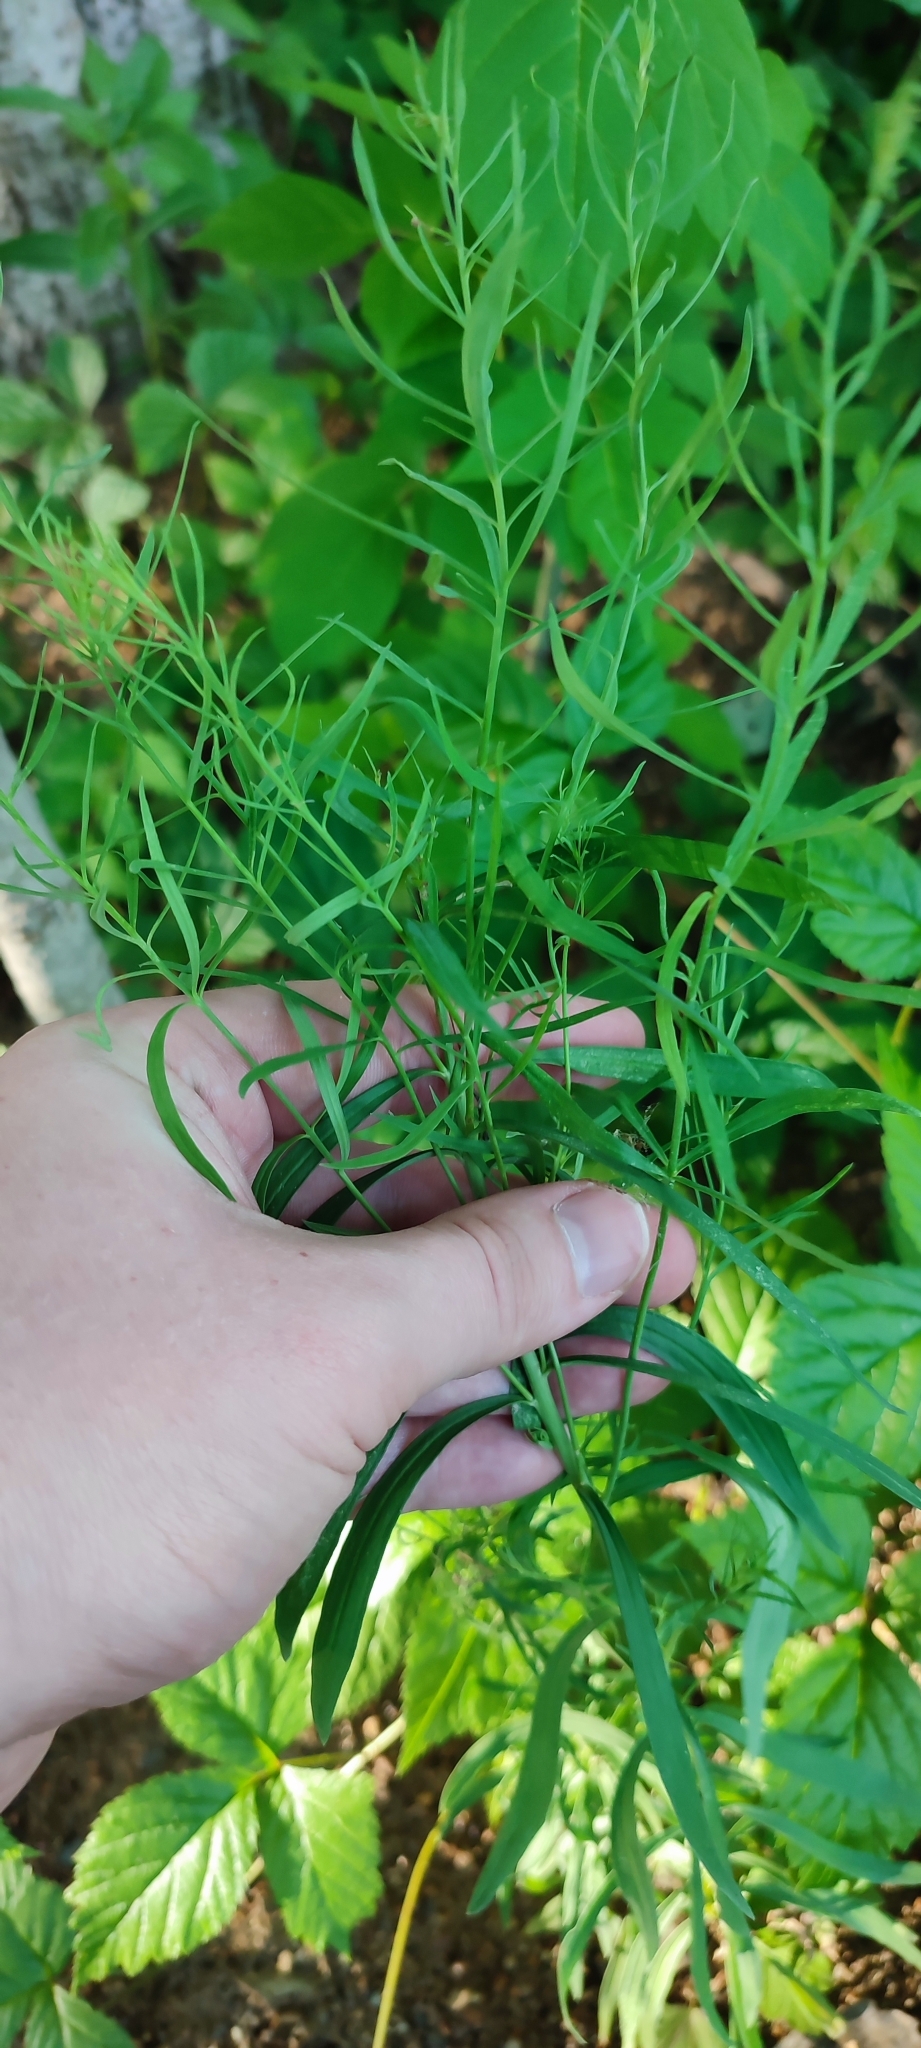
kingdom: Plantae
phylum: Tracheophyta
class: Magnoliopsida
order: Lamiales
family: Plantaginaceae
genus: Linaria
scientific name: Linaria vulgaris
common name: Butter and eggs
